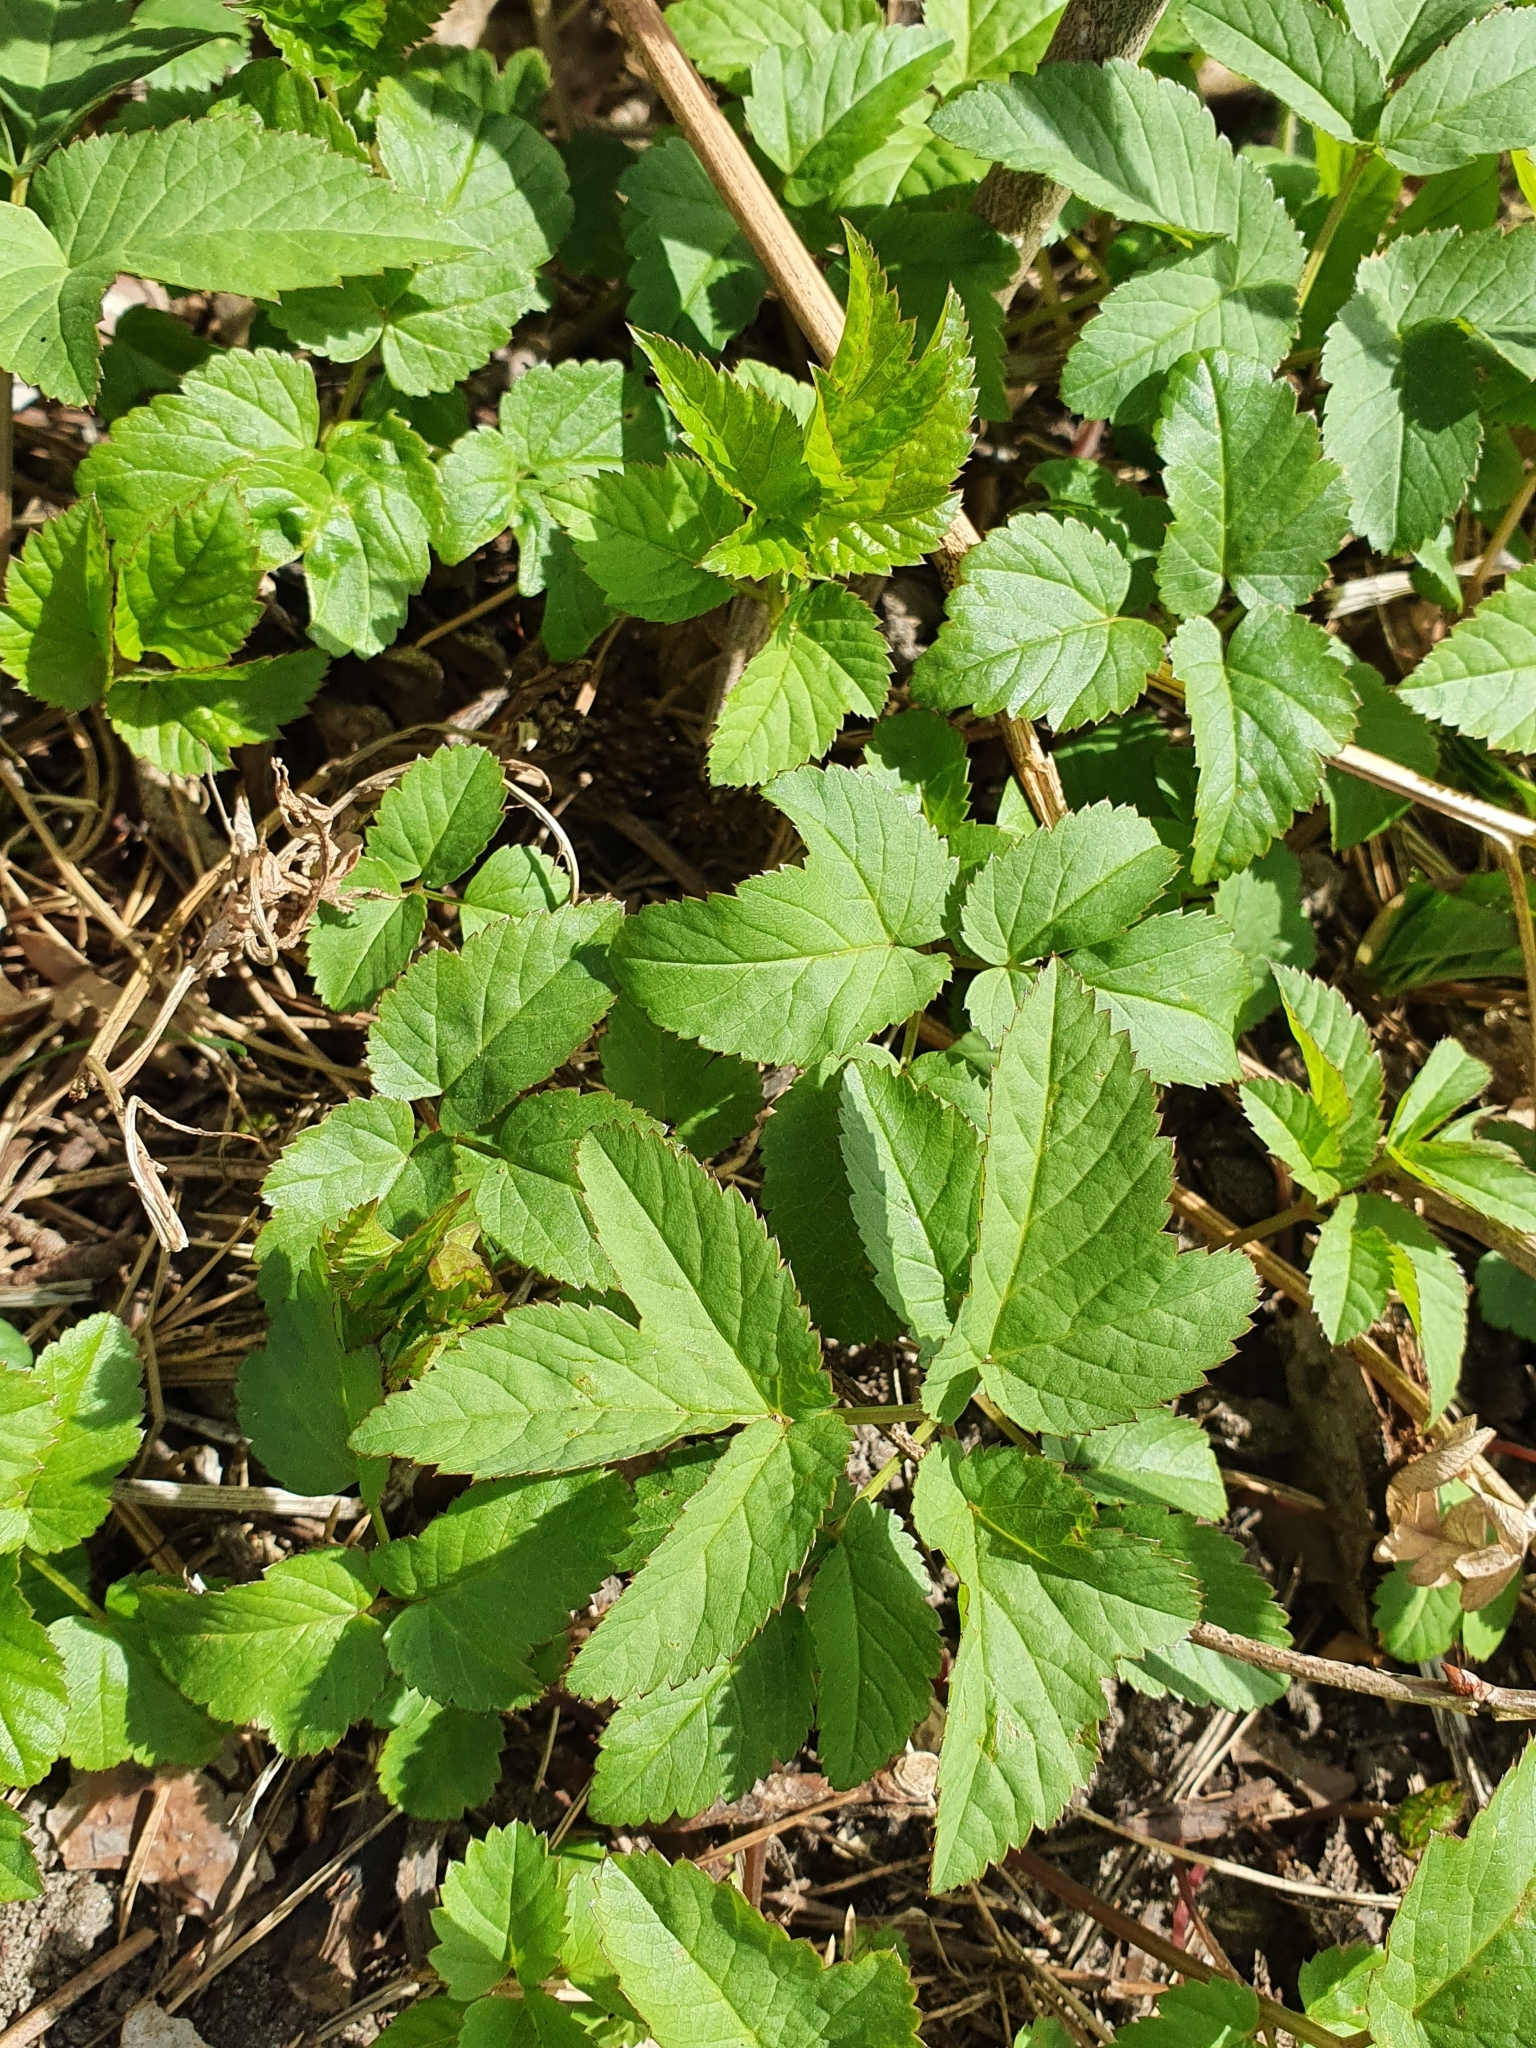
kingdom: Plantae
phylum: Tracheophyta
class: Magnoliopsida
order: Apiales
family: Apiaceae
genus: Aegopodium
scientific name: Aegopodium podagraria
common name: Ground-elder
